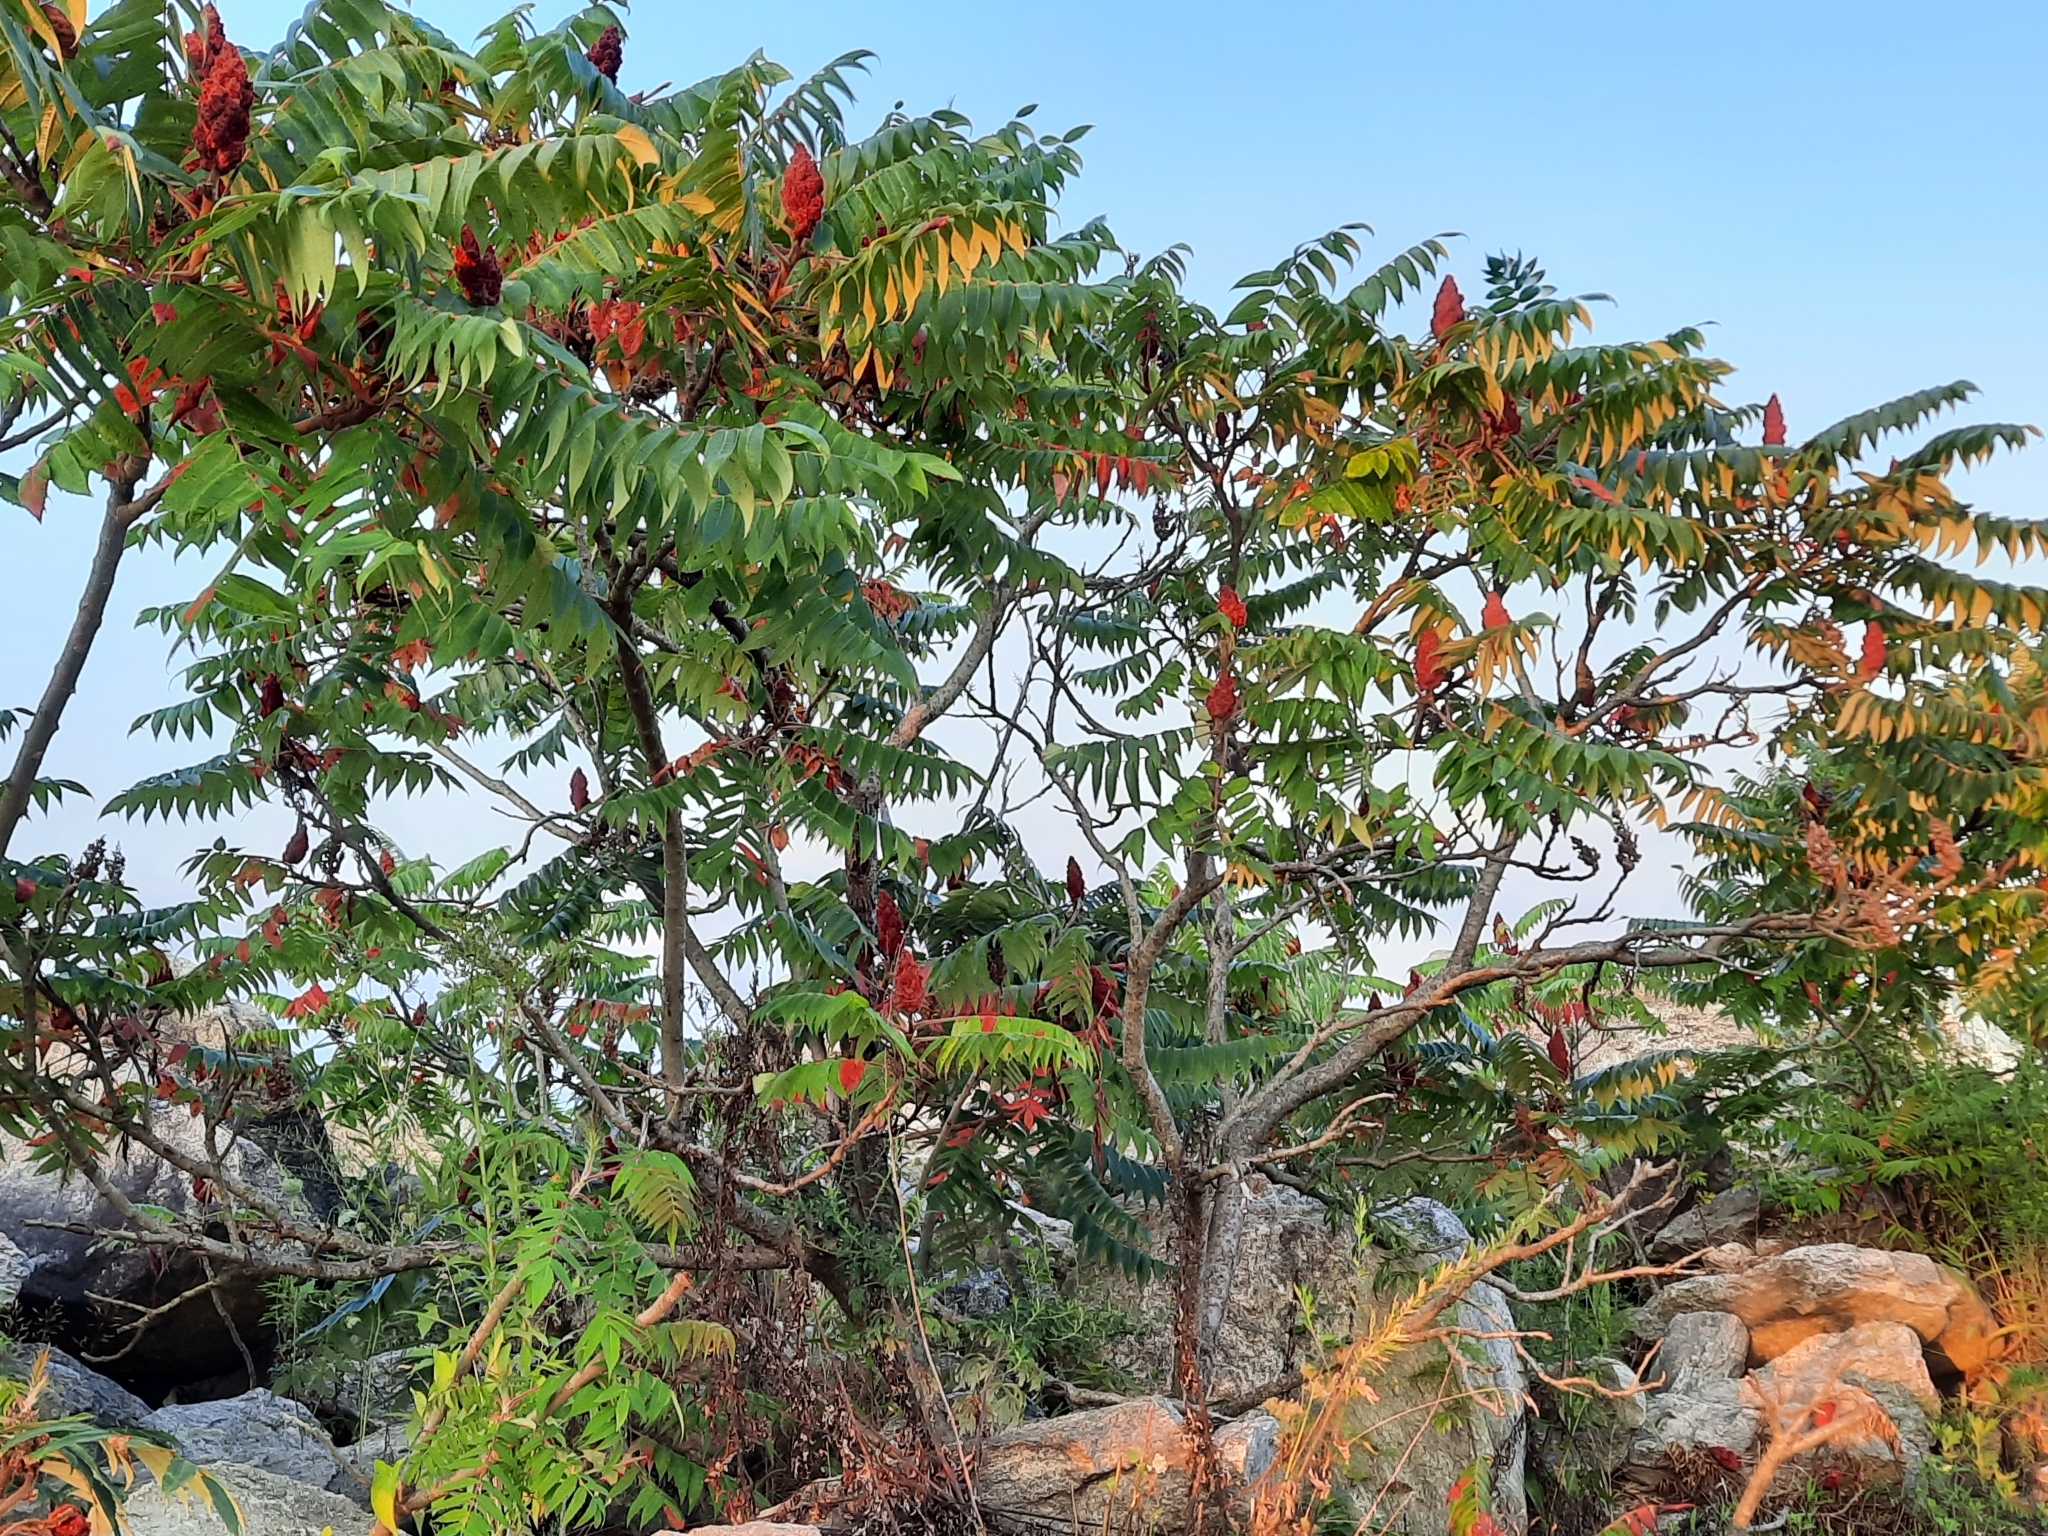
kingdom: Plantae
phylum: Tracheophyta
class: Magnoliopsida
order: Sapindales
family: Anacardiaceae
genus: Rhus
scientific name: Rhus typhina
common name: Staghorn sumac
